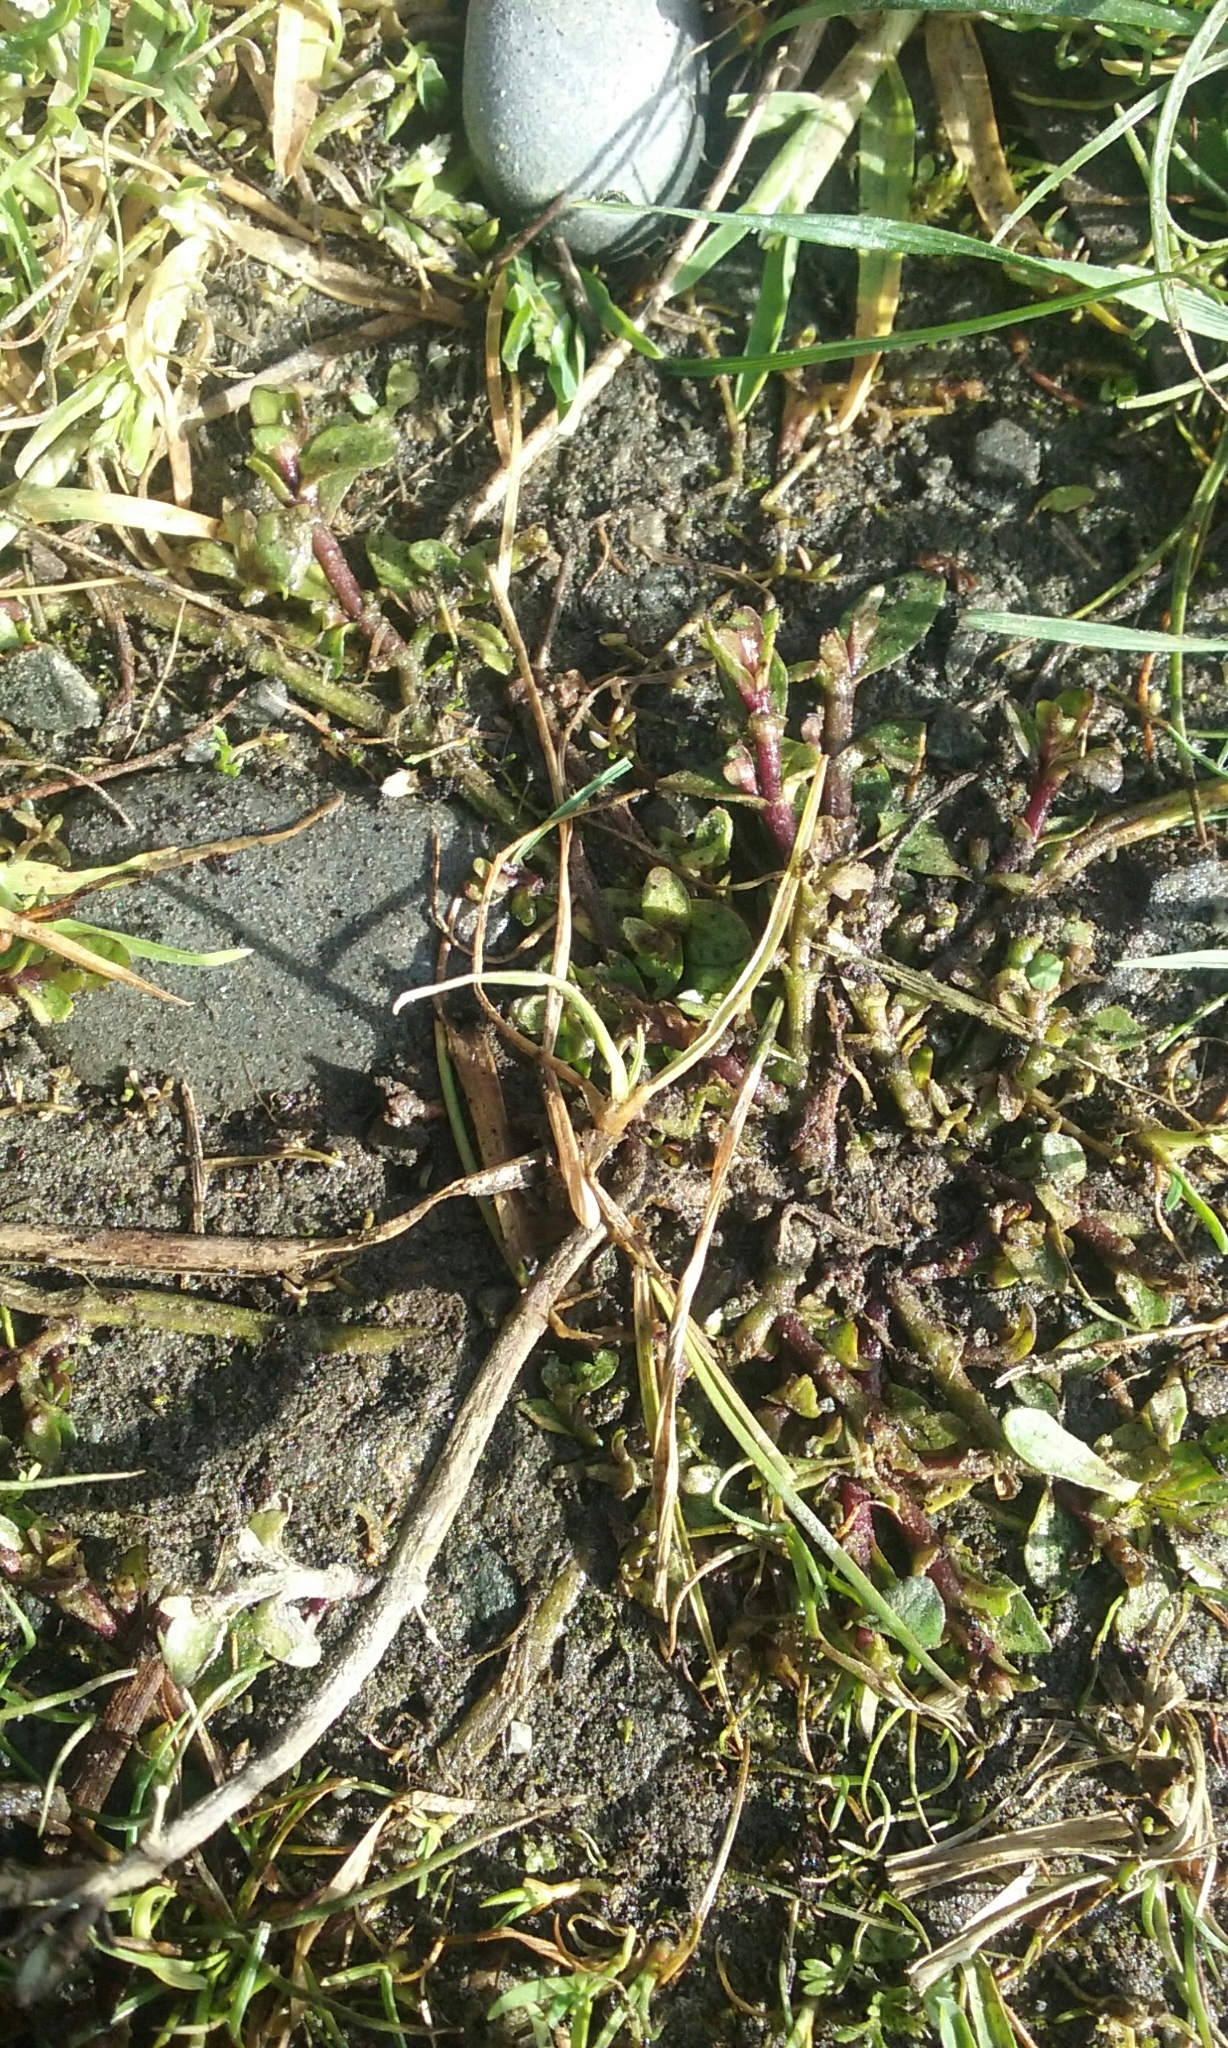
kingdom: Plantae
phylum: Tracheophyta
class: Magnoliopsida
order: Lamiales
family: Plantaginaceae
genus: Gratiola
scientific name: Gratiola sexdentata
